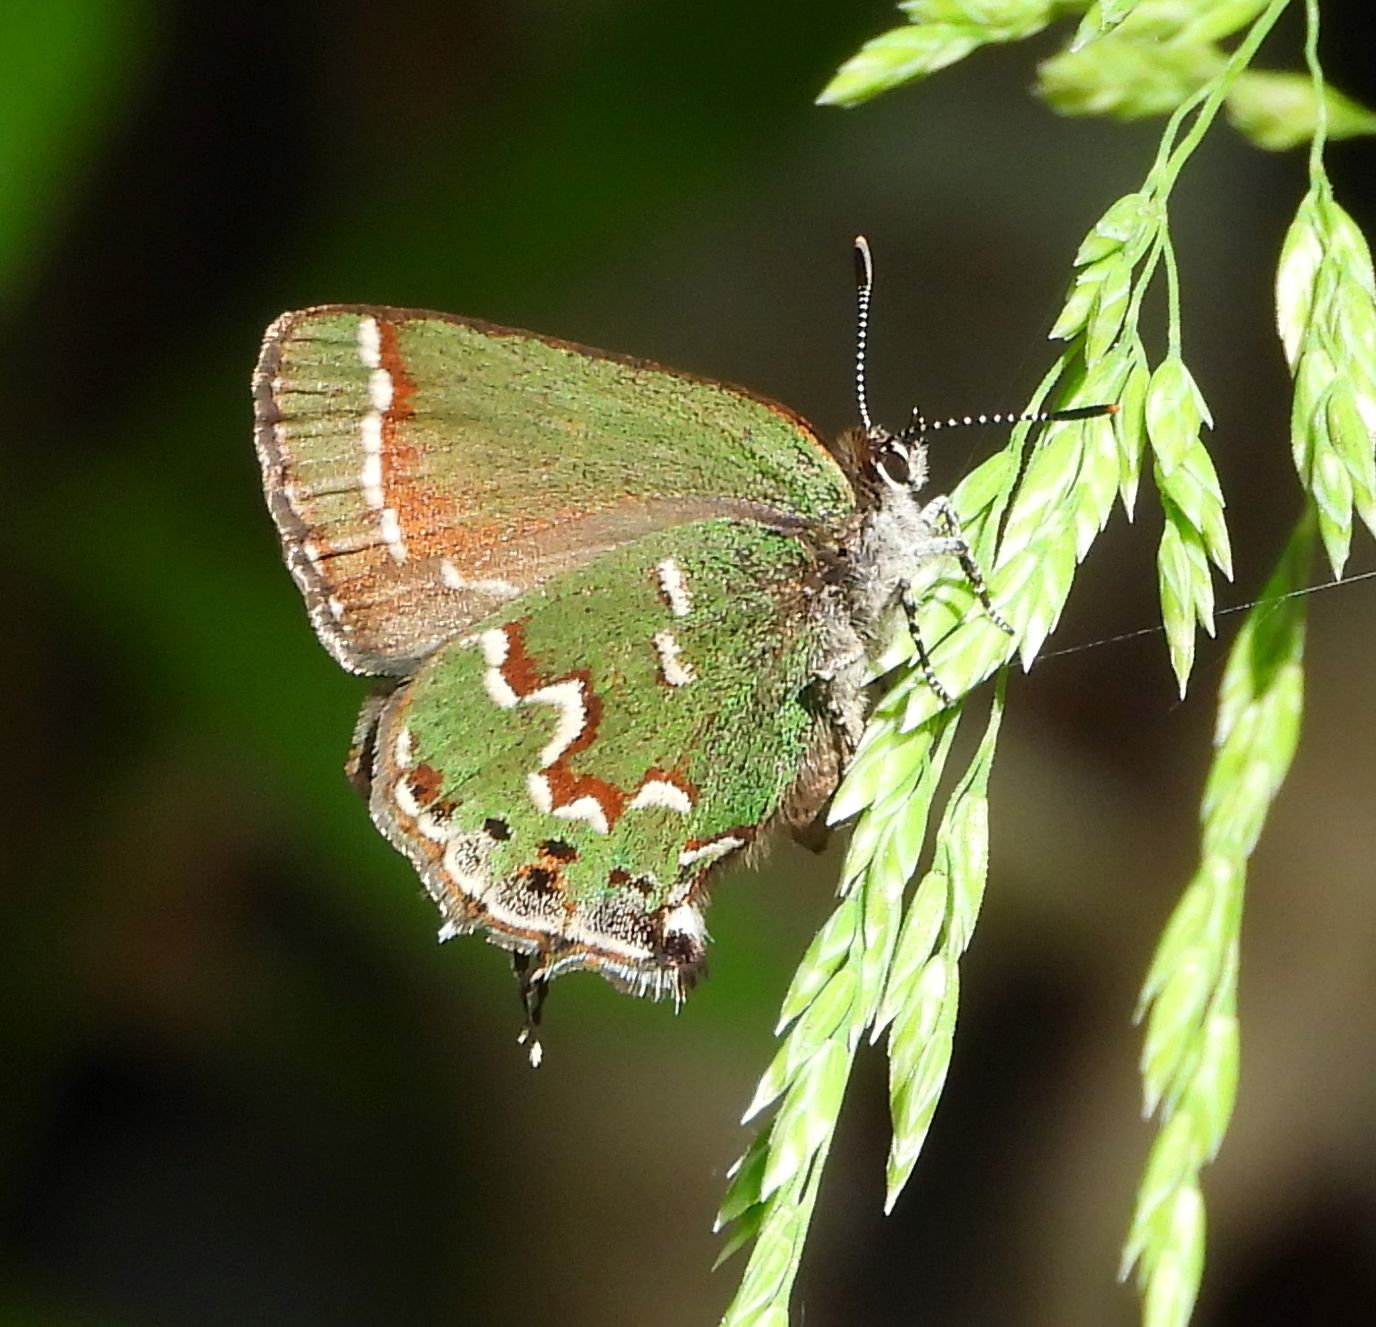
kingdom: Animalia
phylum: Arthropoda
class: Insecta
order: Lepidoptera
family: Lycaenidae
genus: Mitoura
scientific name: Mitoura gryneus
